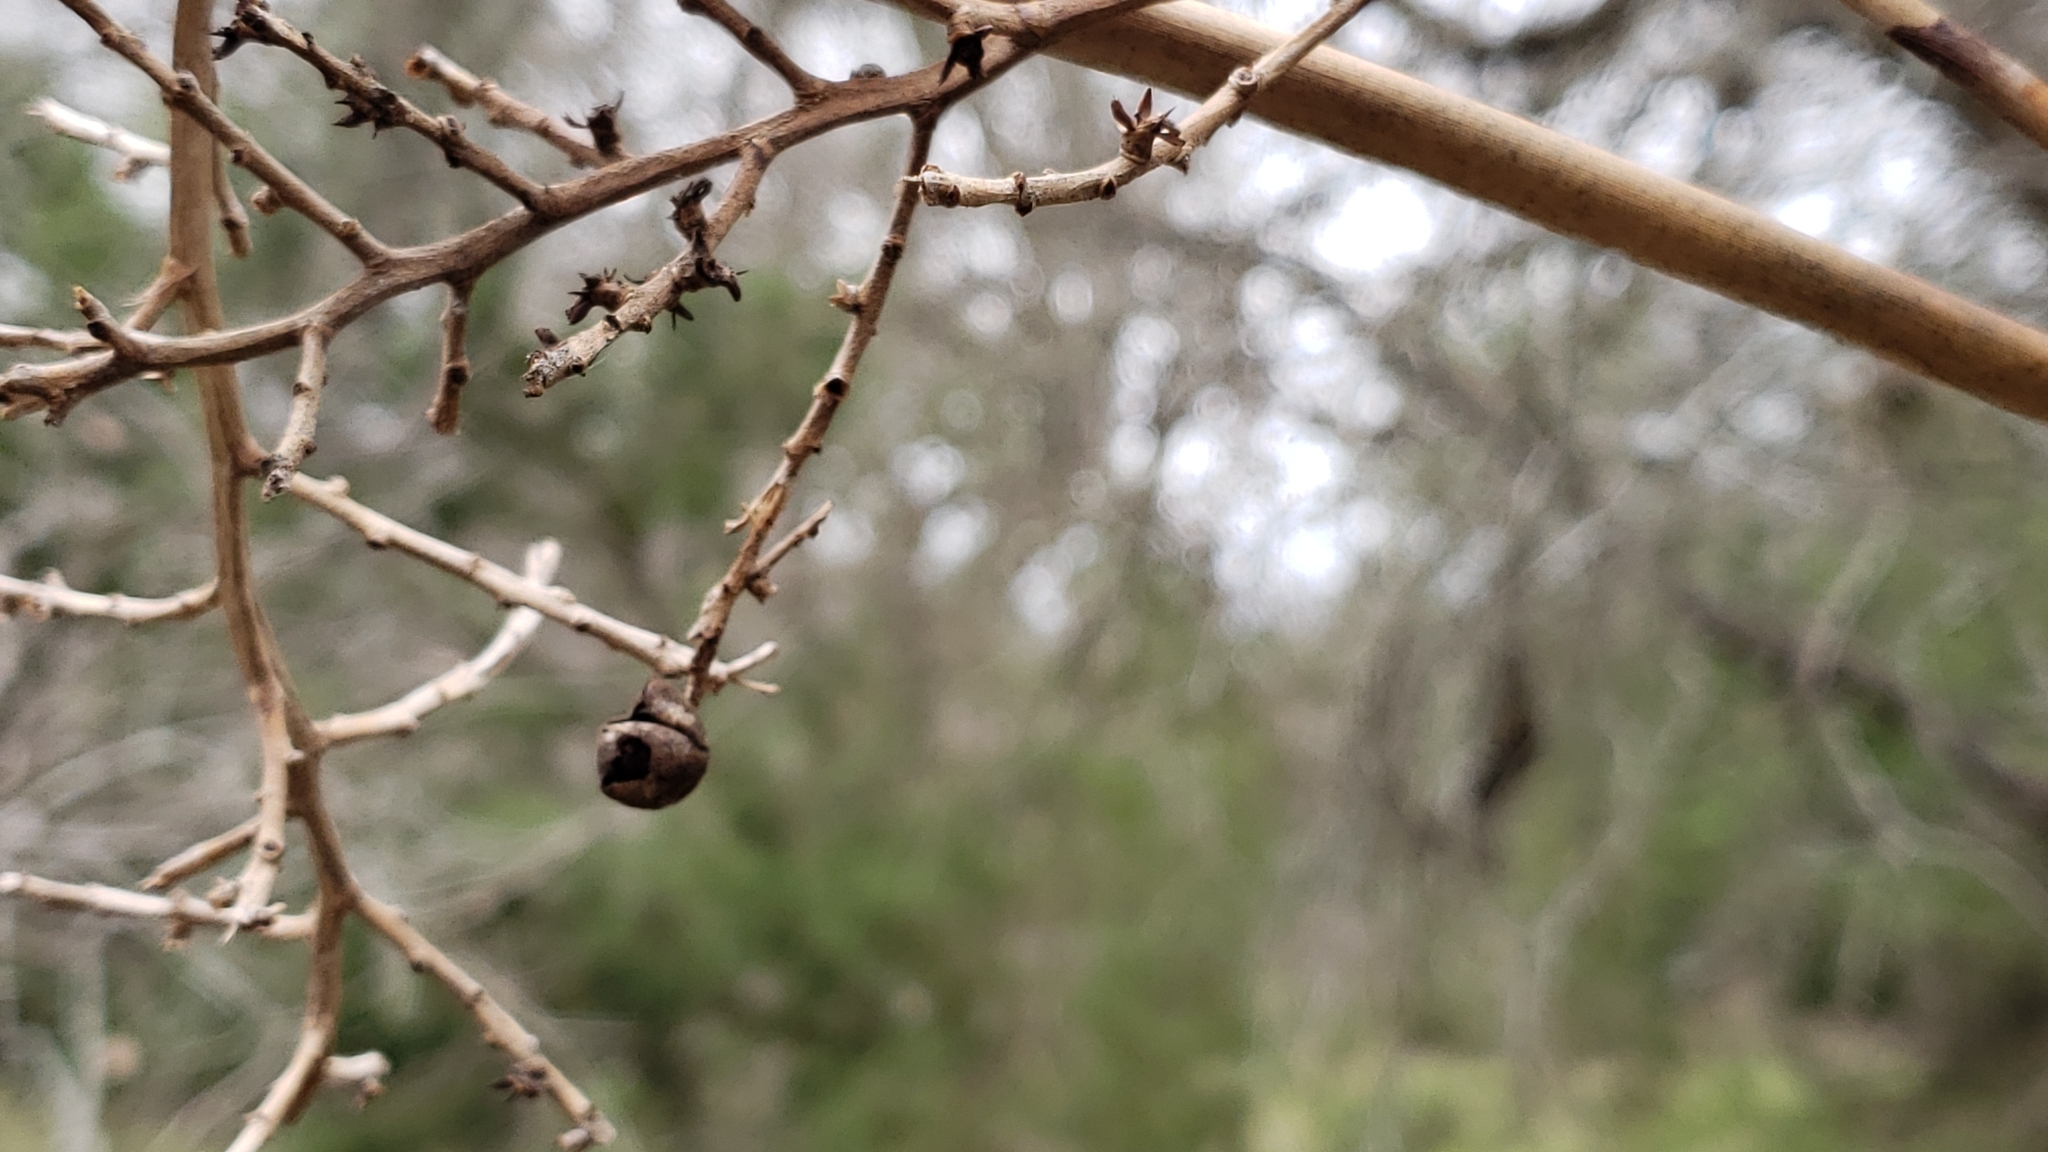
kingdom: Plantae
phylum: Tracheophyta
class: Liliopsida
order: Arecales
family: Arecaceae
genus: Sabal
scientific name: Sabal minor
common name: Dwarf palmetto
